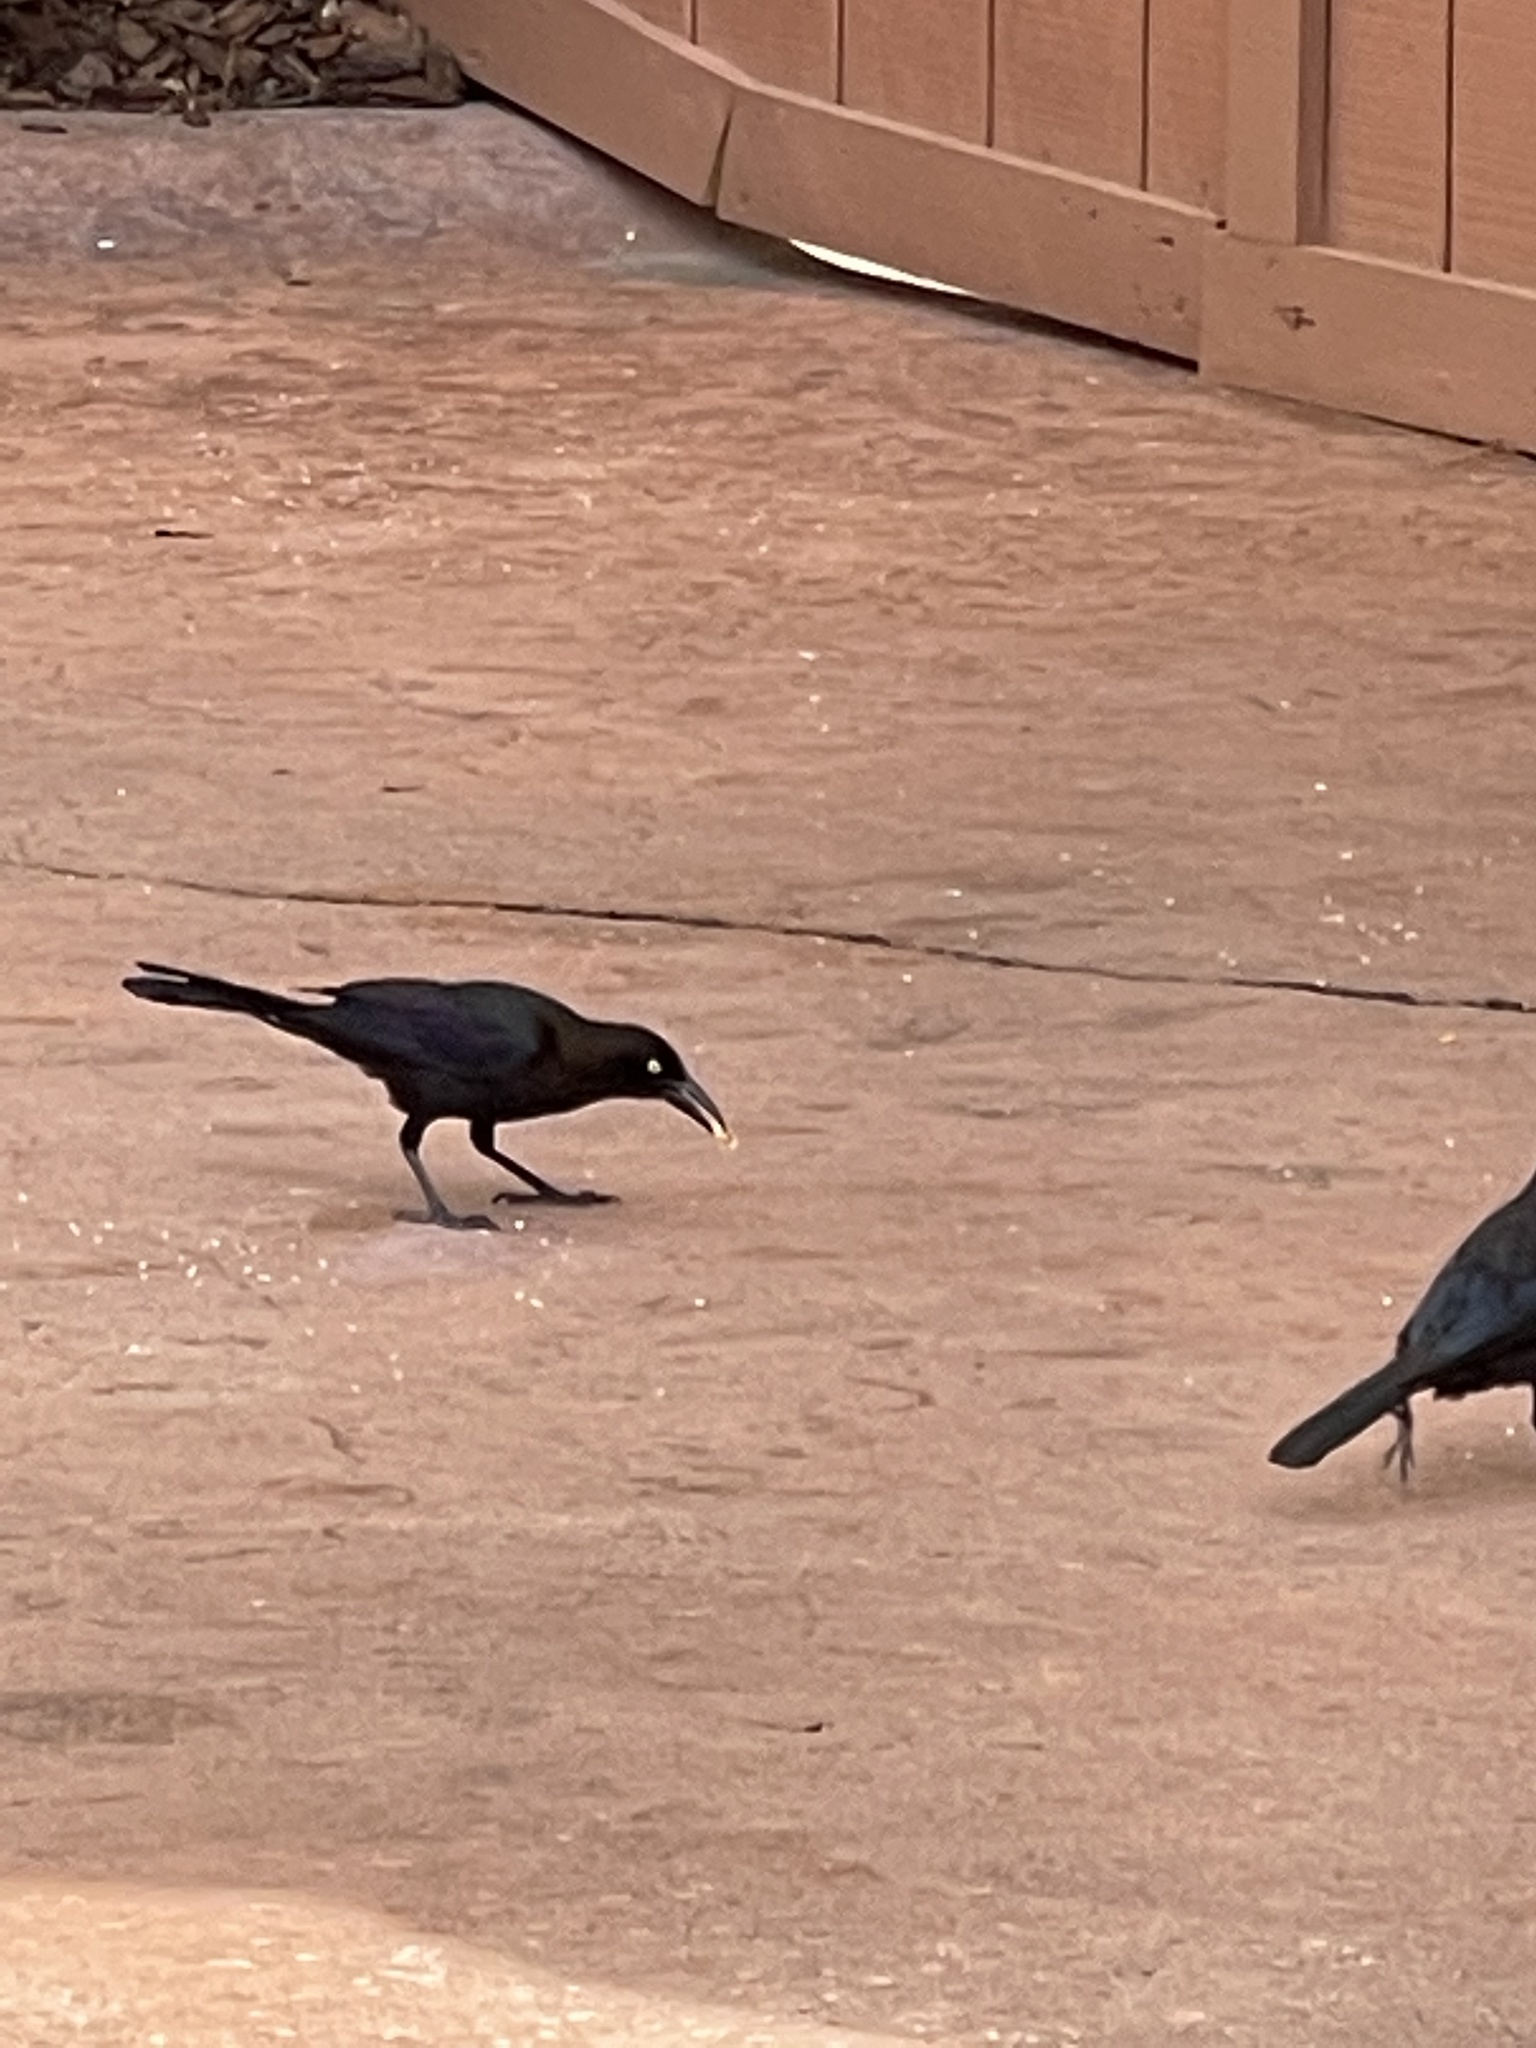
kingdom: Animalia
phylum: Chordata
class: Aves
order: Passeriformes
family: Icteridae
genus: Quiscalus
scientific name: Quiscalus quiscula
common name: Common grackle
